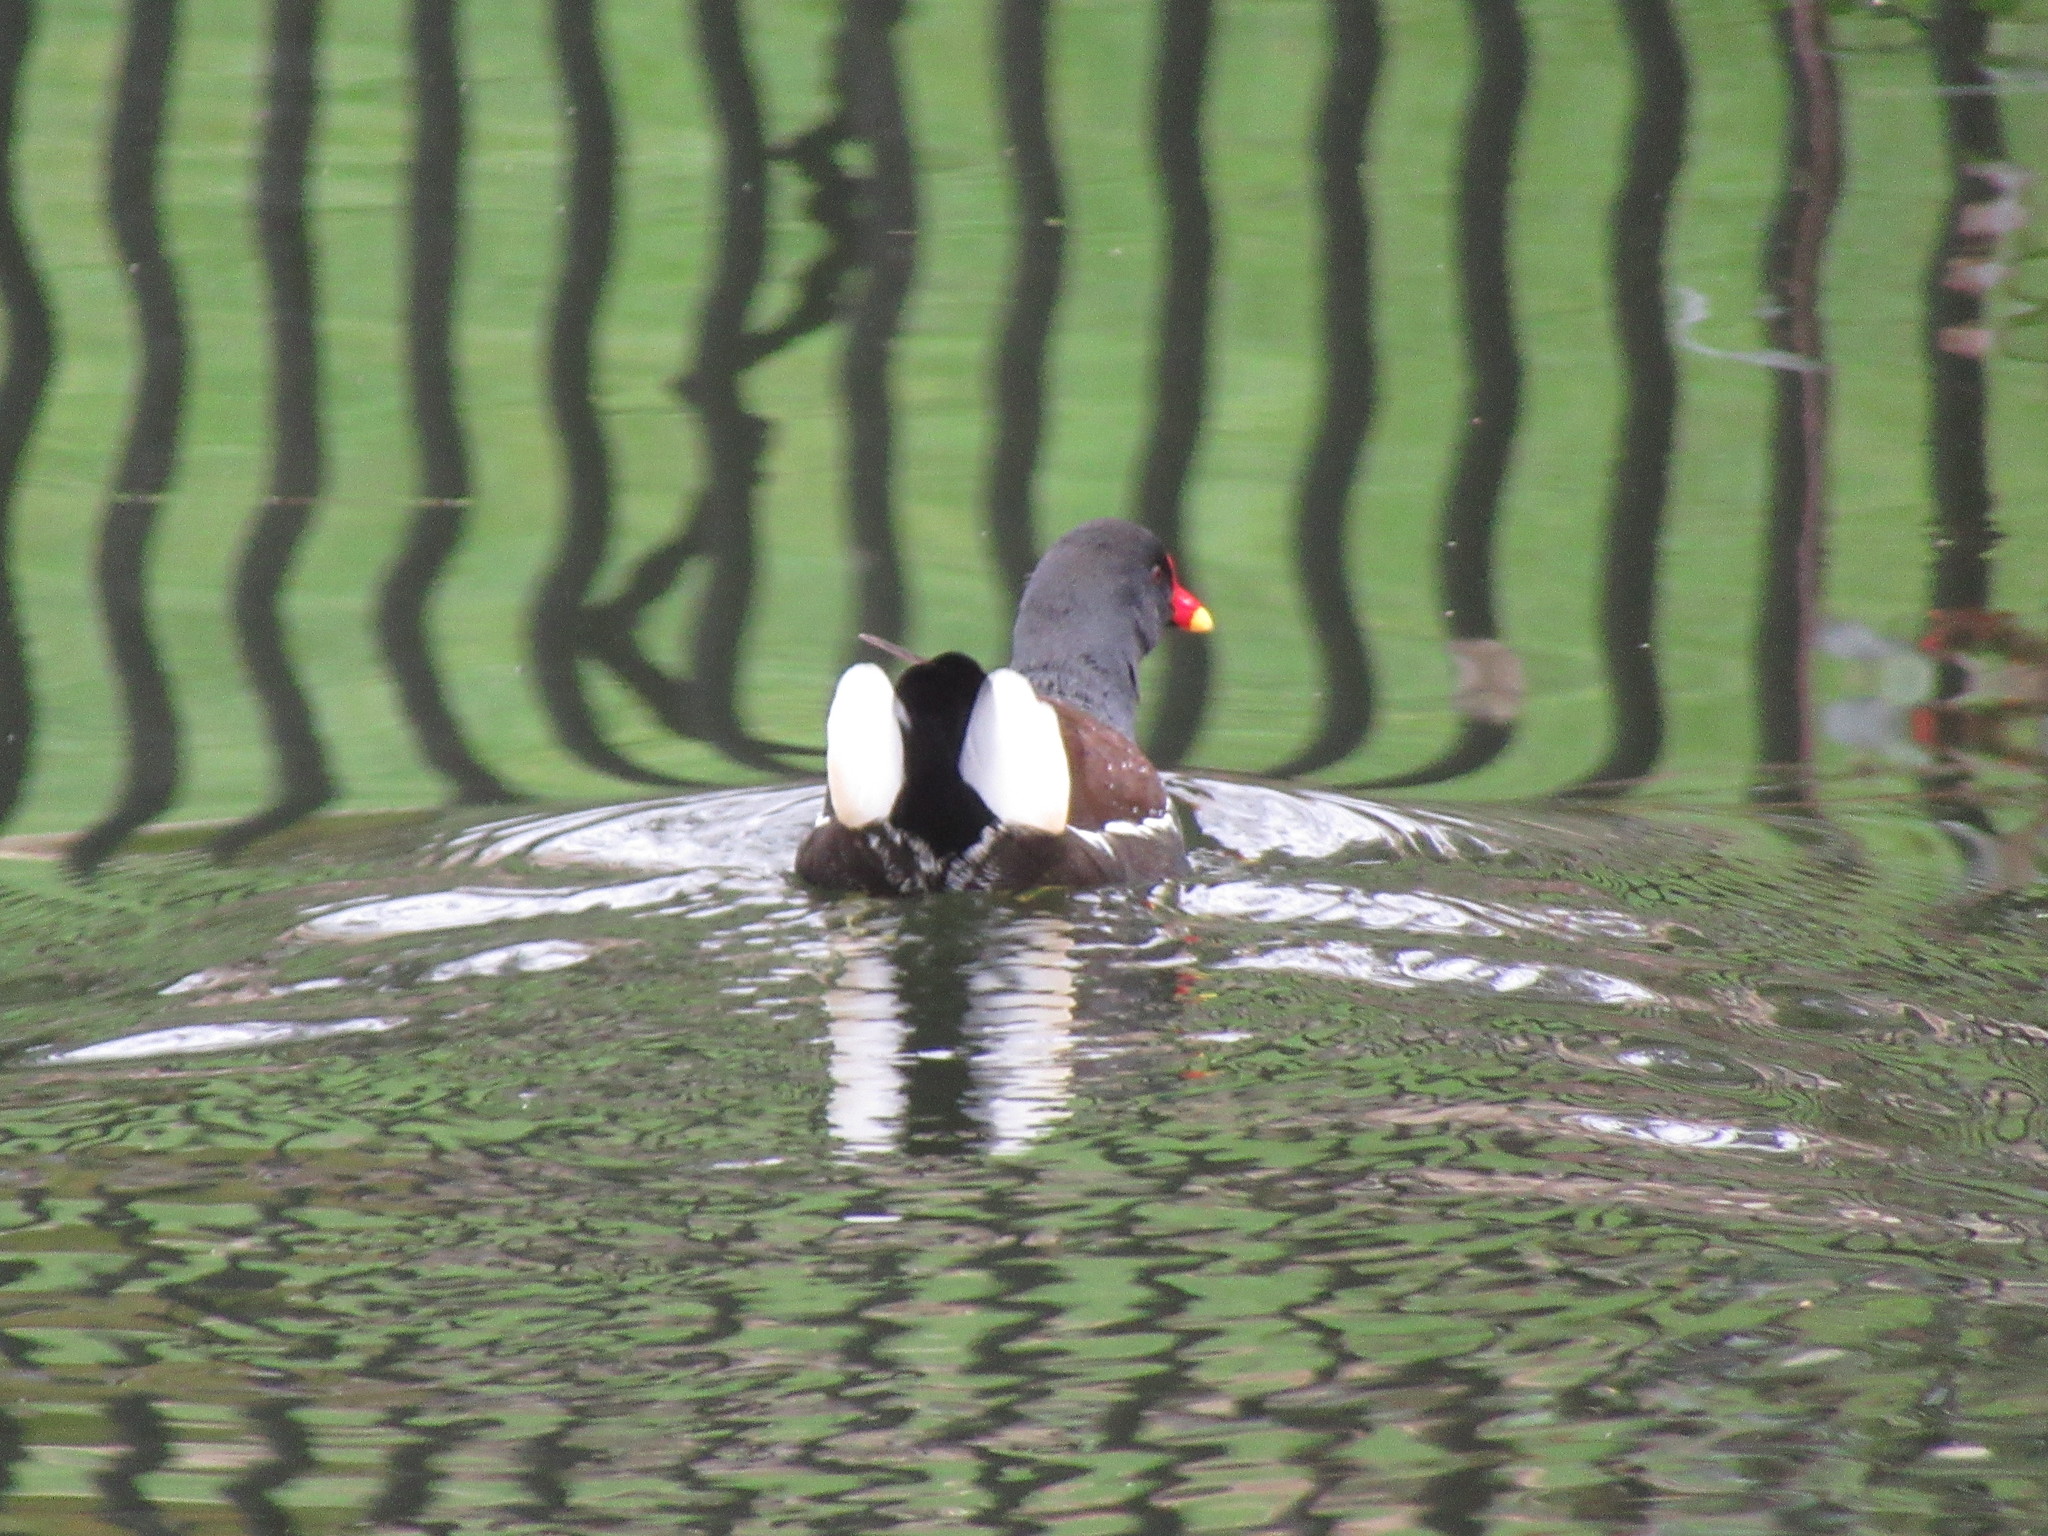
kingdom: Animalia
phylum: Chordata
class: Aves
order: Gruiformes
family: Rallidae
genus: Gallinula
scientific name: Gallinula chloropus
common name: Common moorhen
